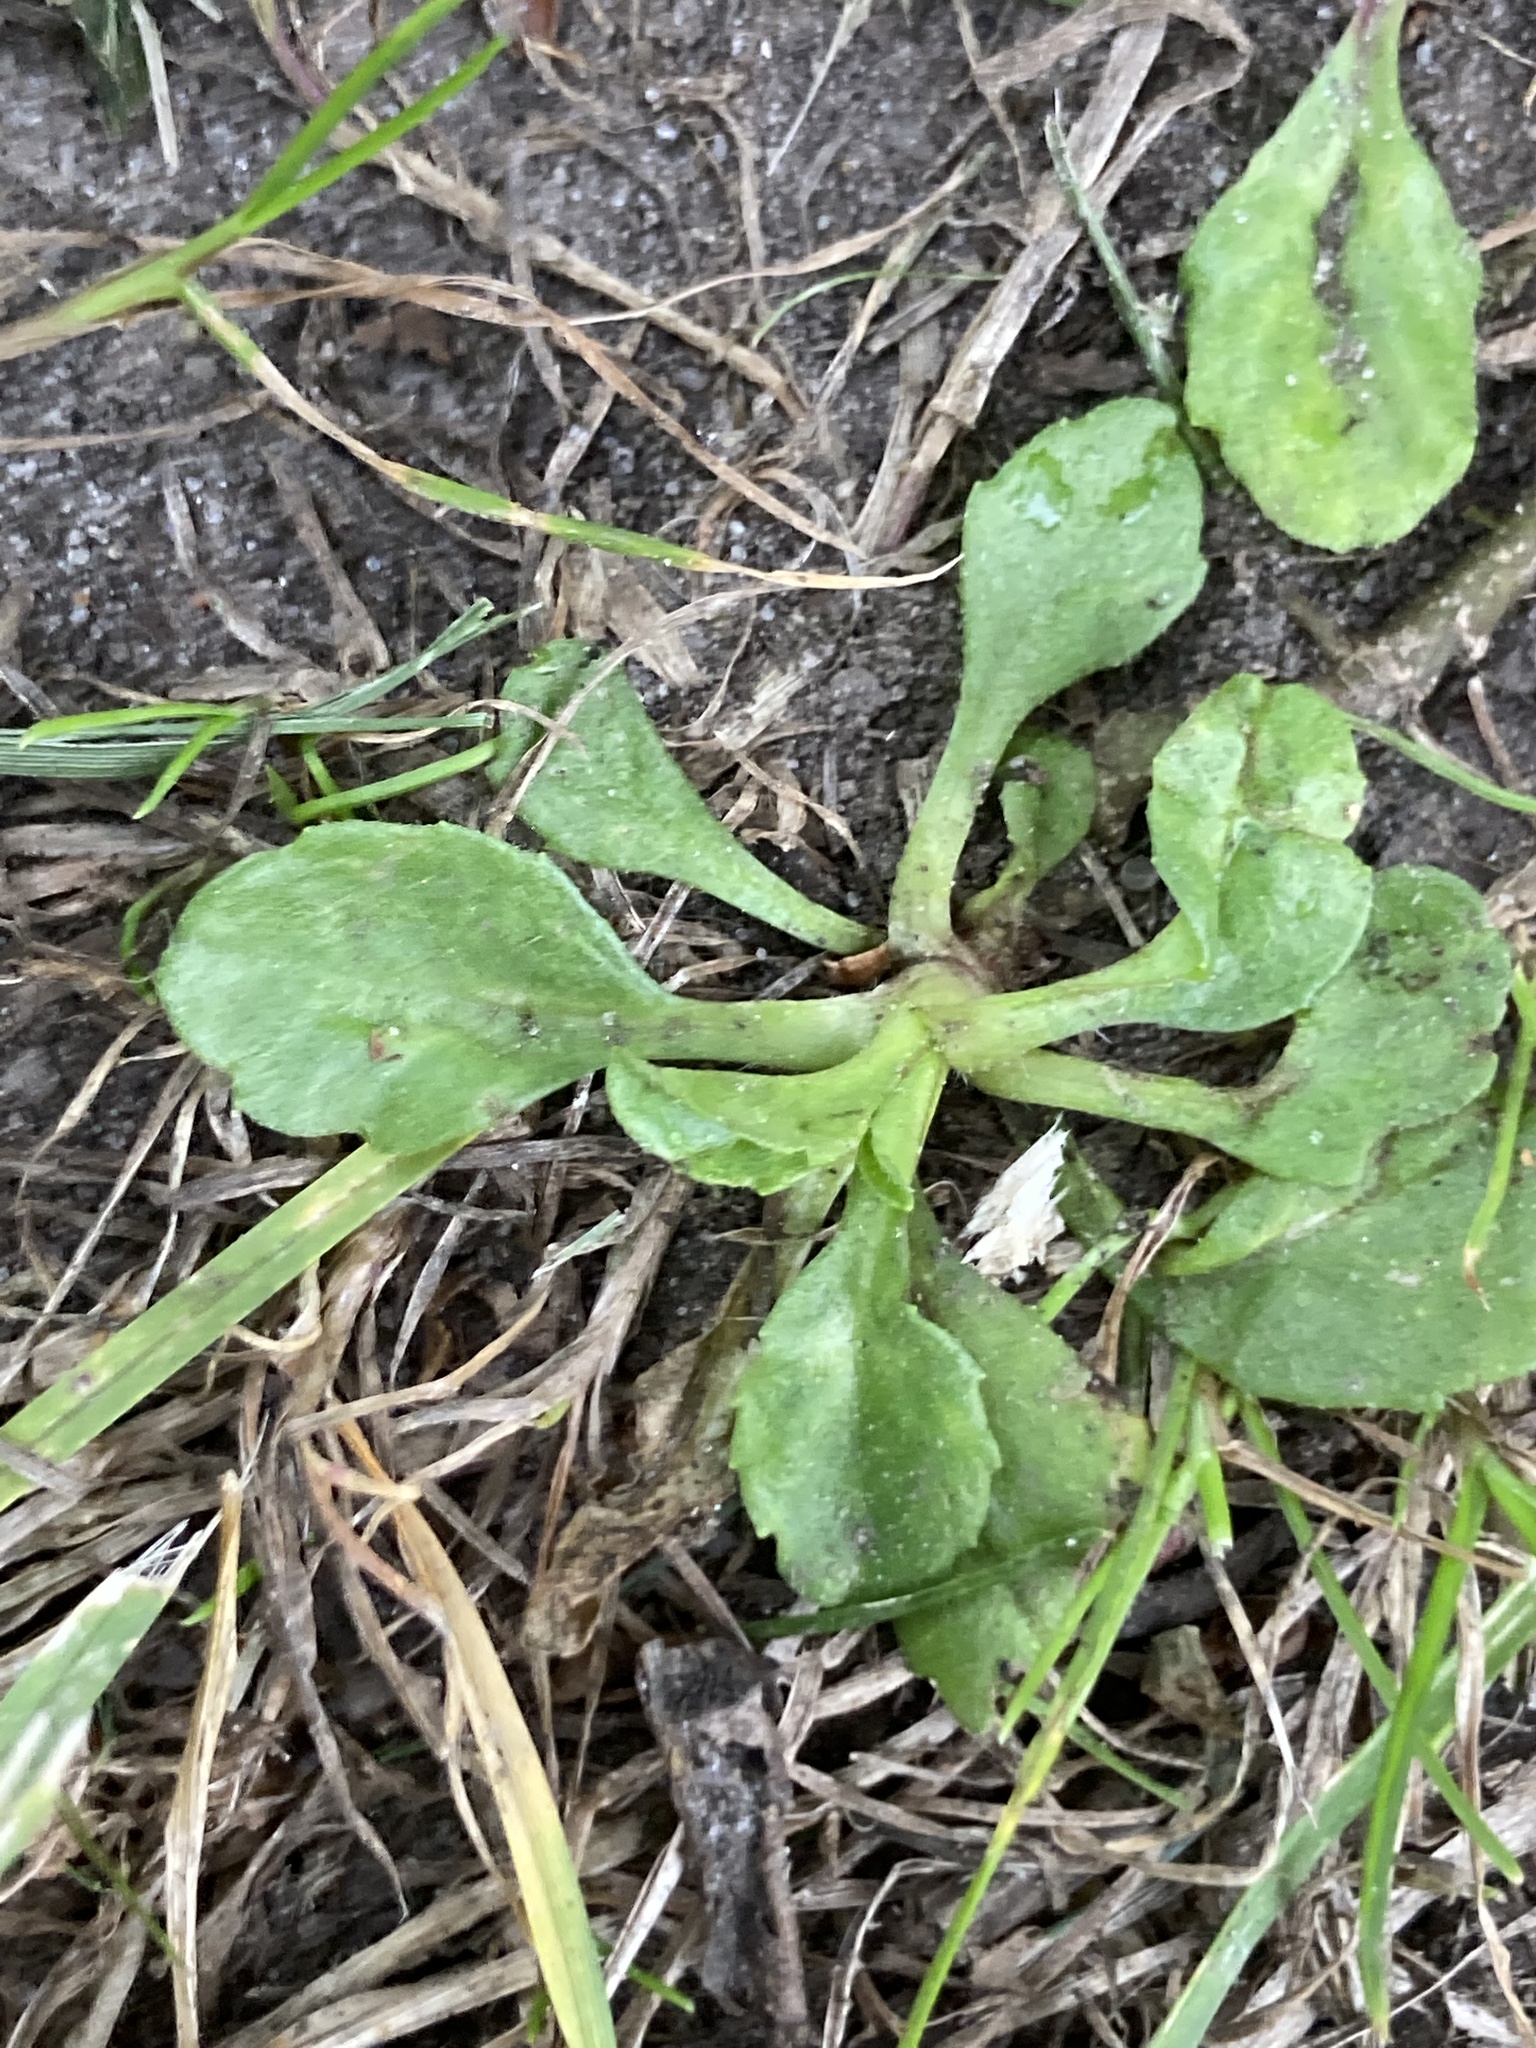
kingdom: Plantae
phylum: Tracheophyta
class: Magnoliopsida
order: Asterales
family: Asteraceae
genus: Bellis
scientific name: Bellis perennis
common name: Lawndaisy
